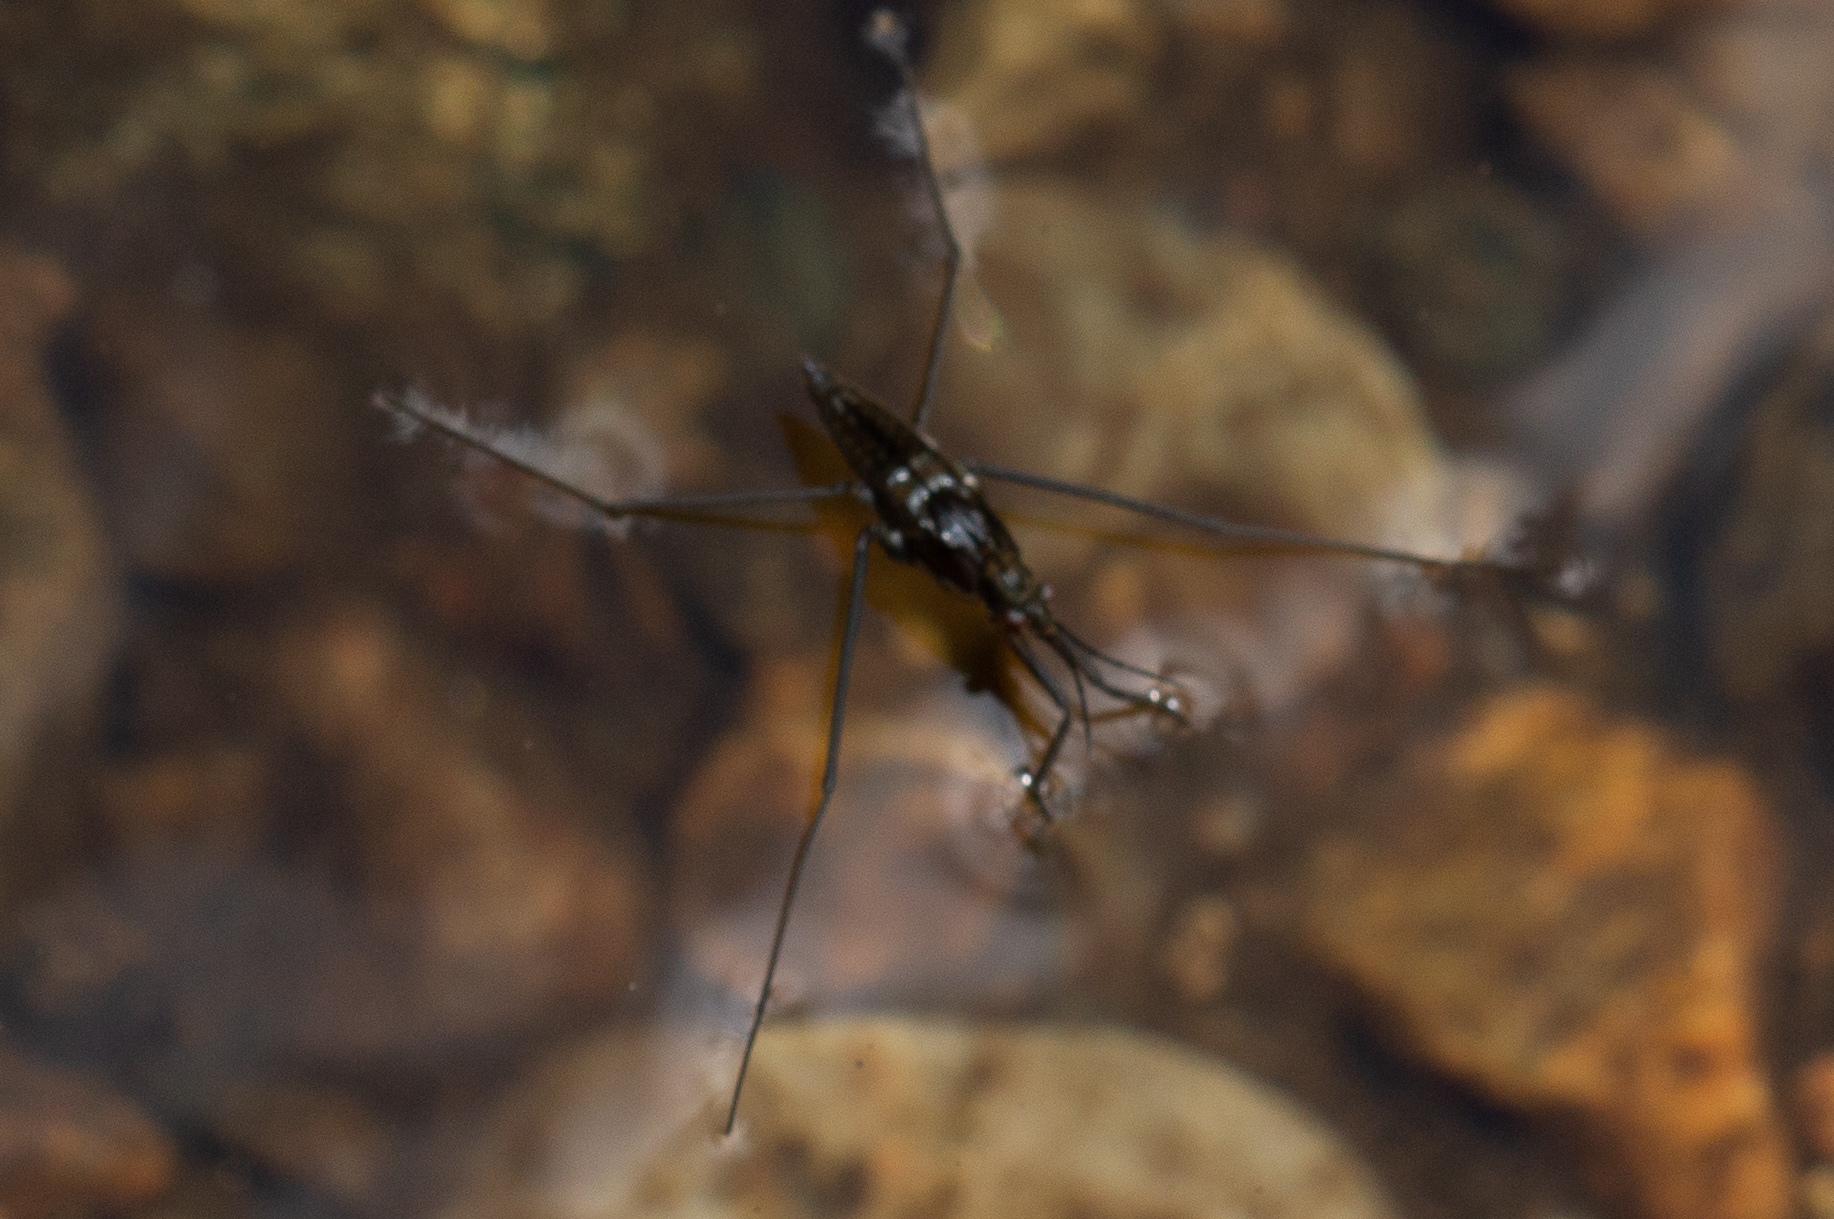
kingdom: Animalia
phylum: Arthropoda
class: Insecta
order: Hemiptera
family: Gerridae
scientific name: Gerridae
